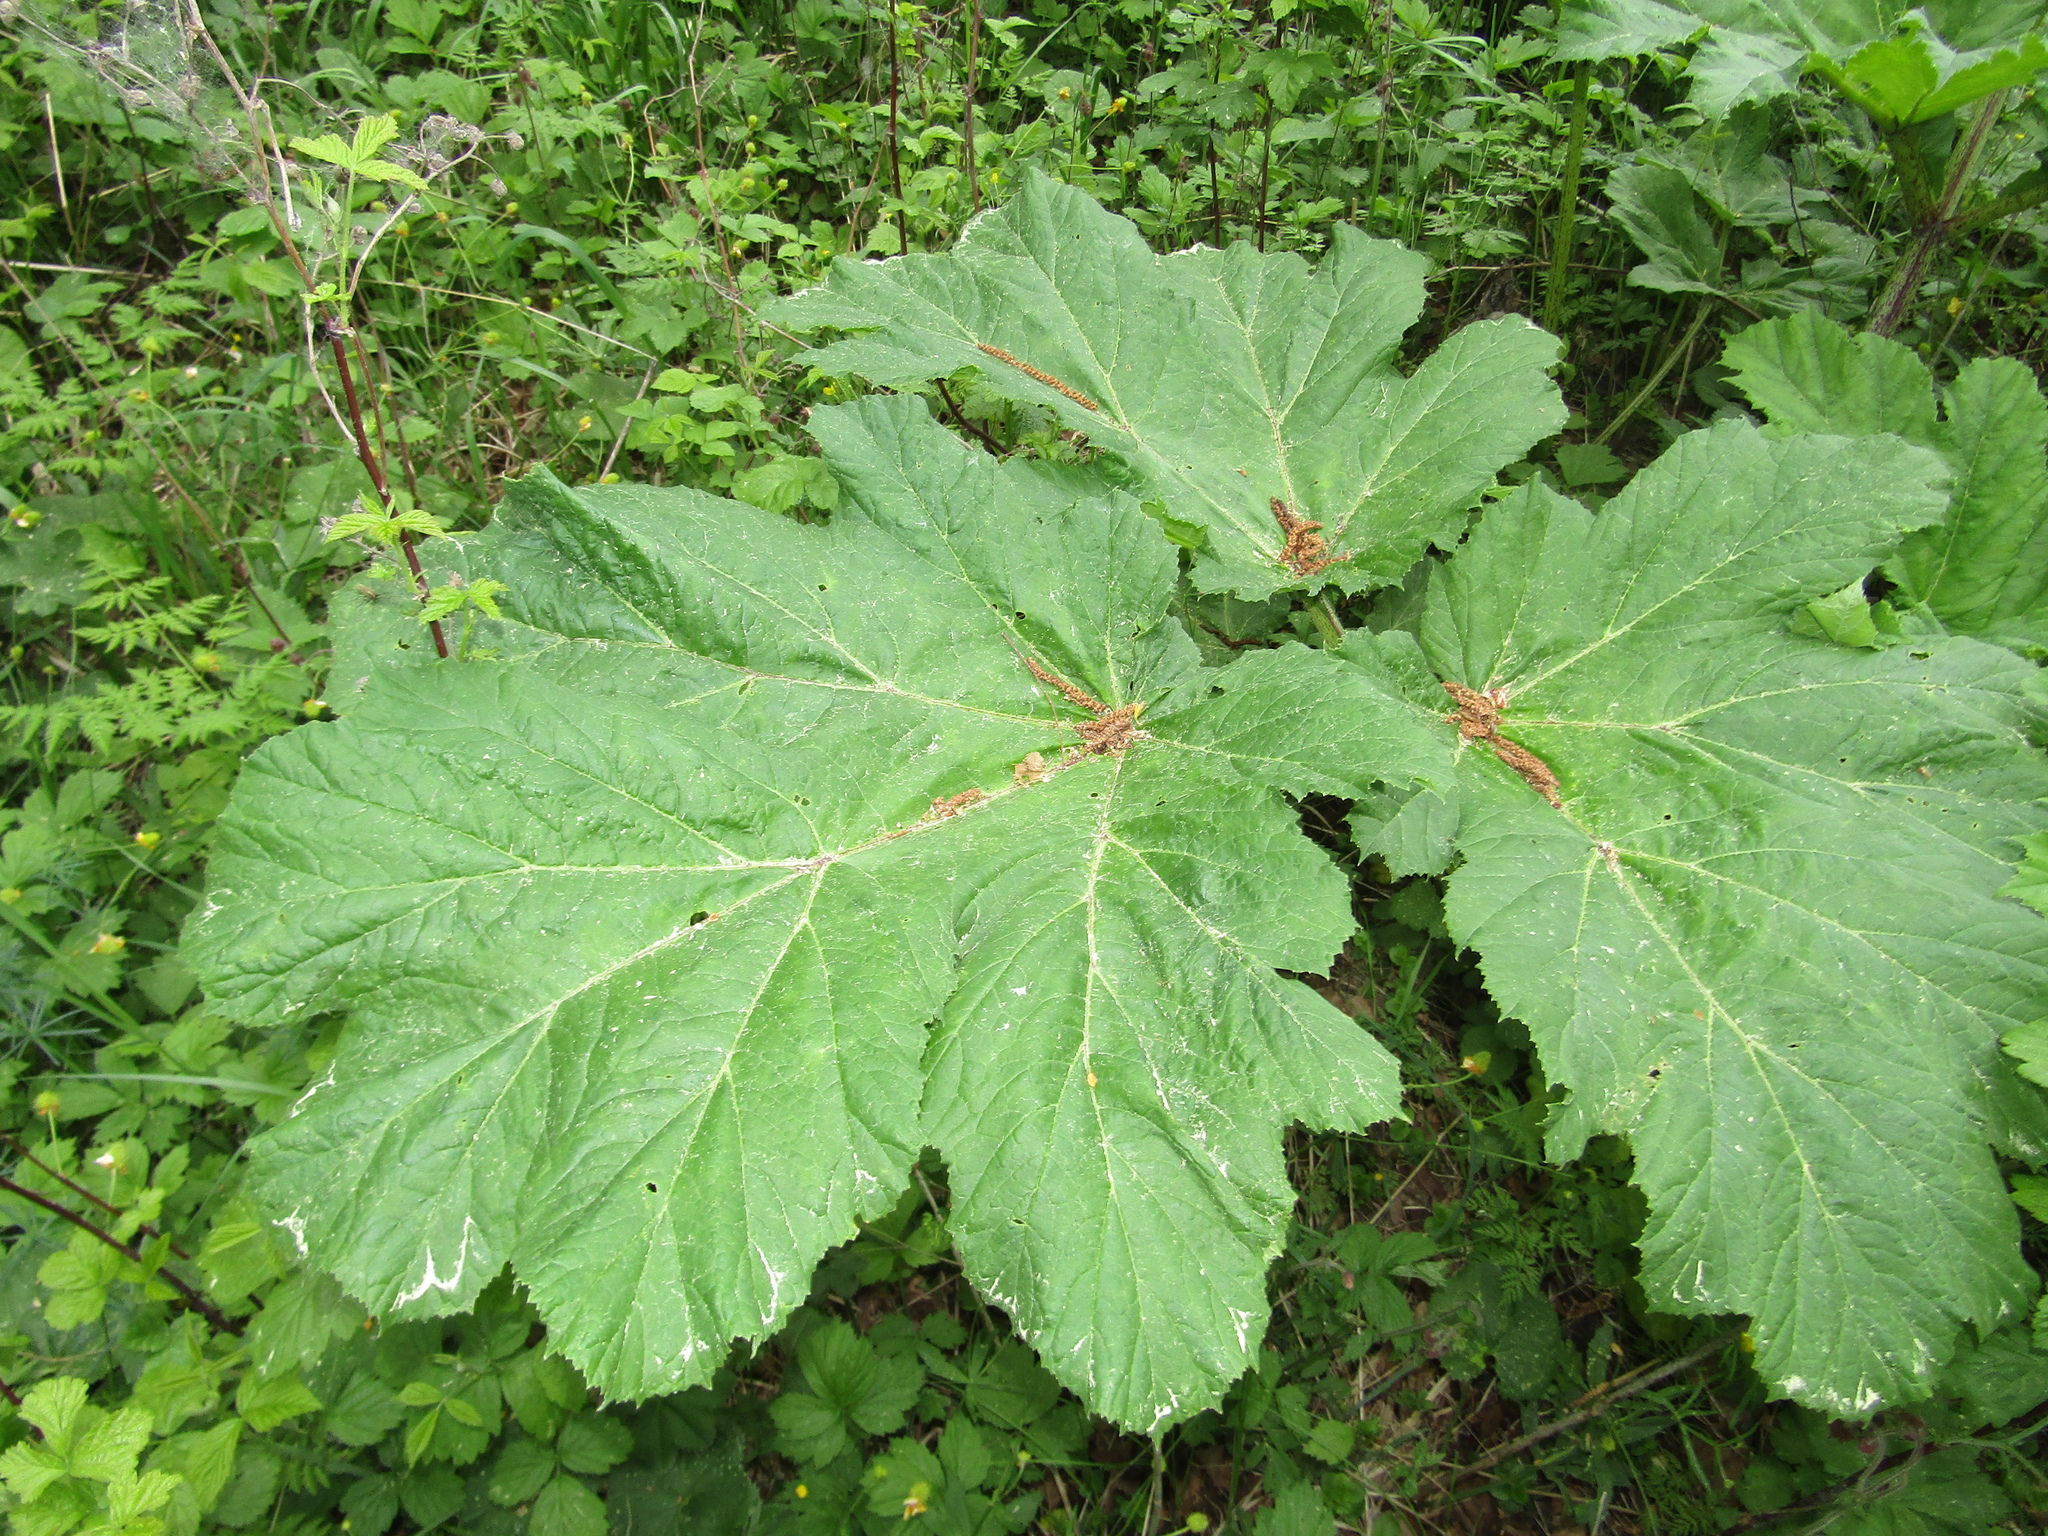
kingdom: Plantae
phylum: Tracheophyta
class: Magnoliopsida
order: Apiales
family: Apiaceae
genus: Heracleum
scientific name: Heracleum sosnowskyi
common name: Sosnowsky's hogweed
